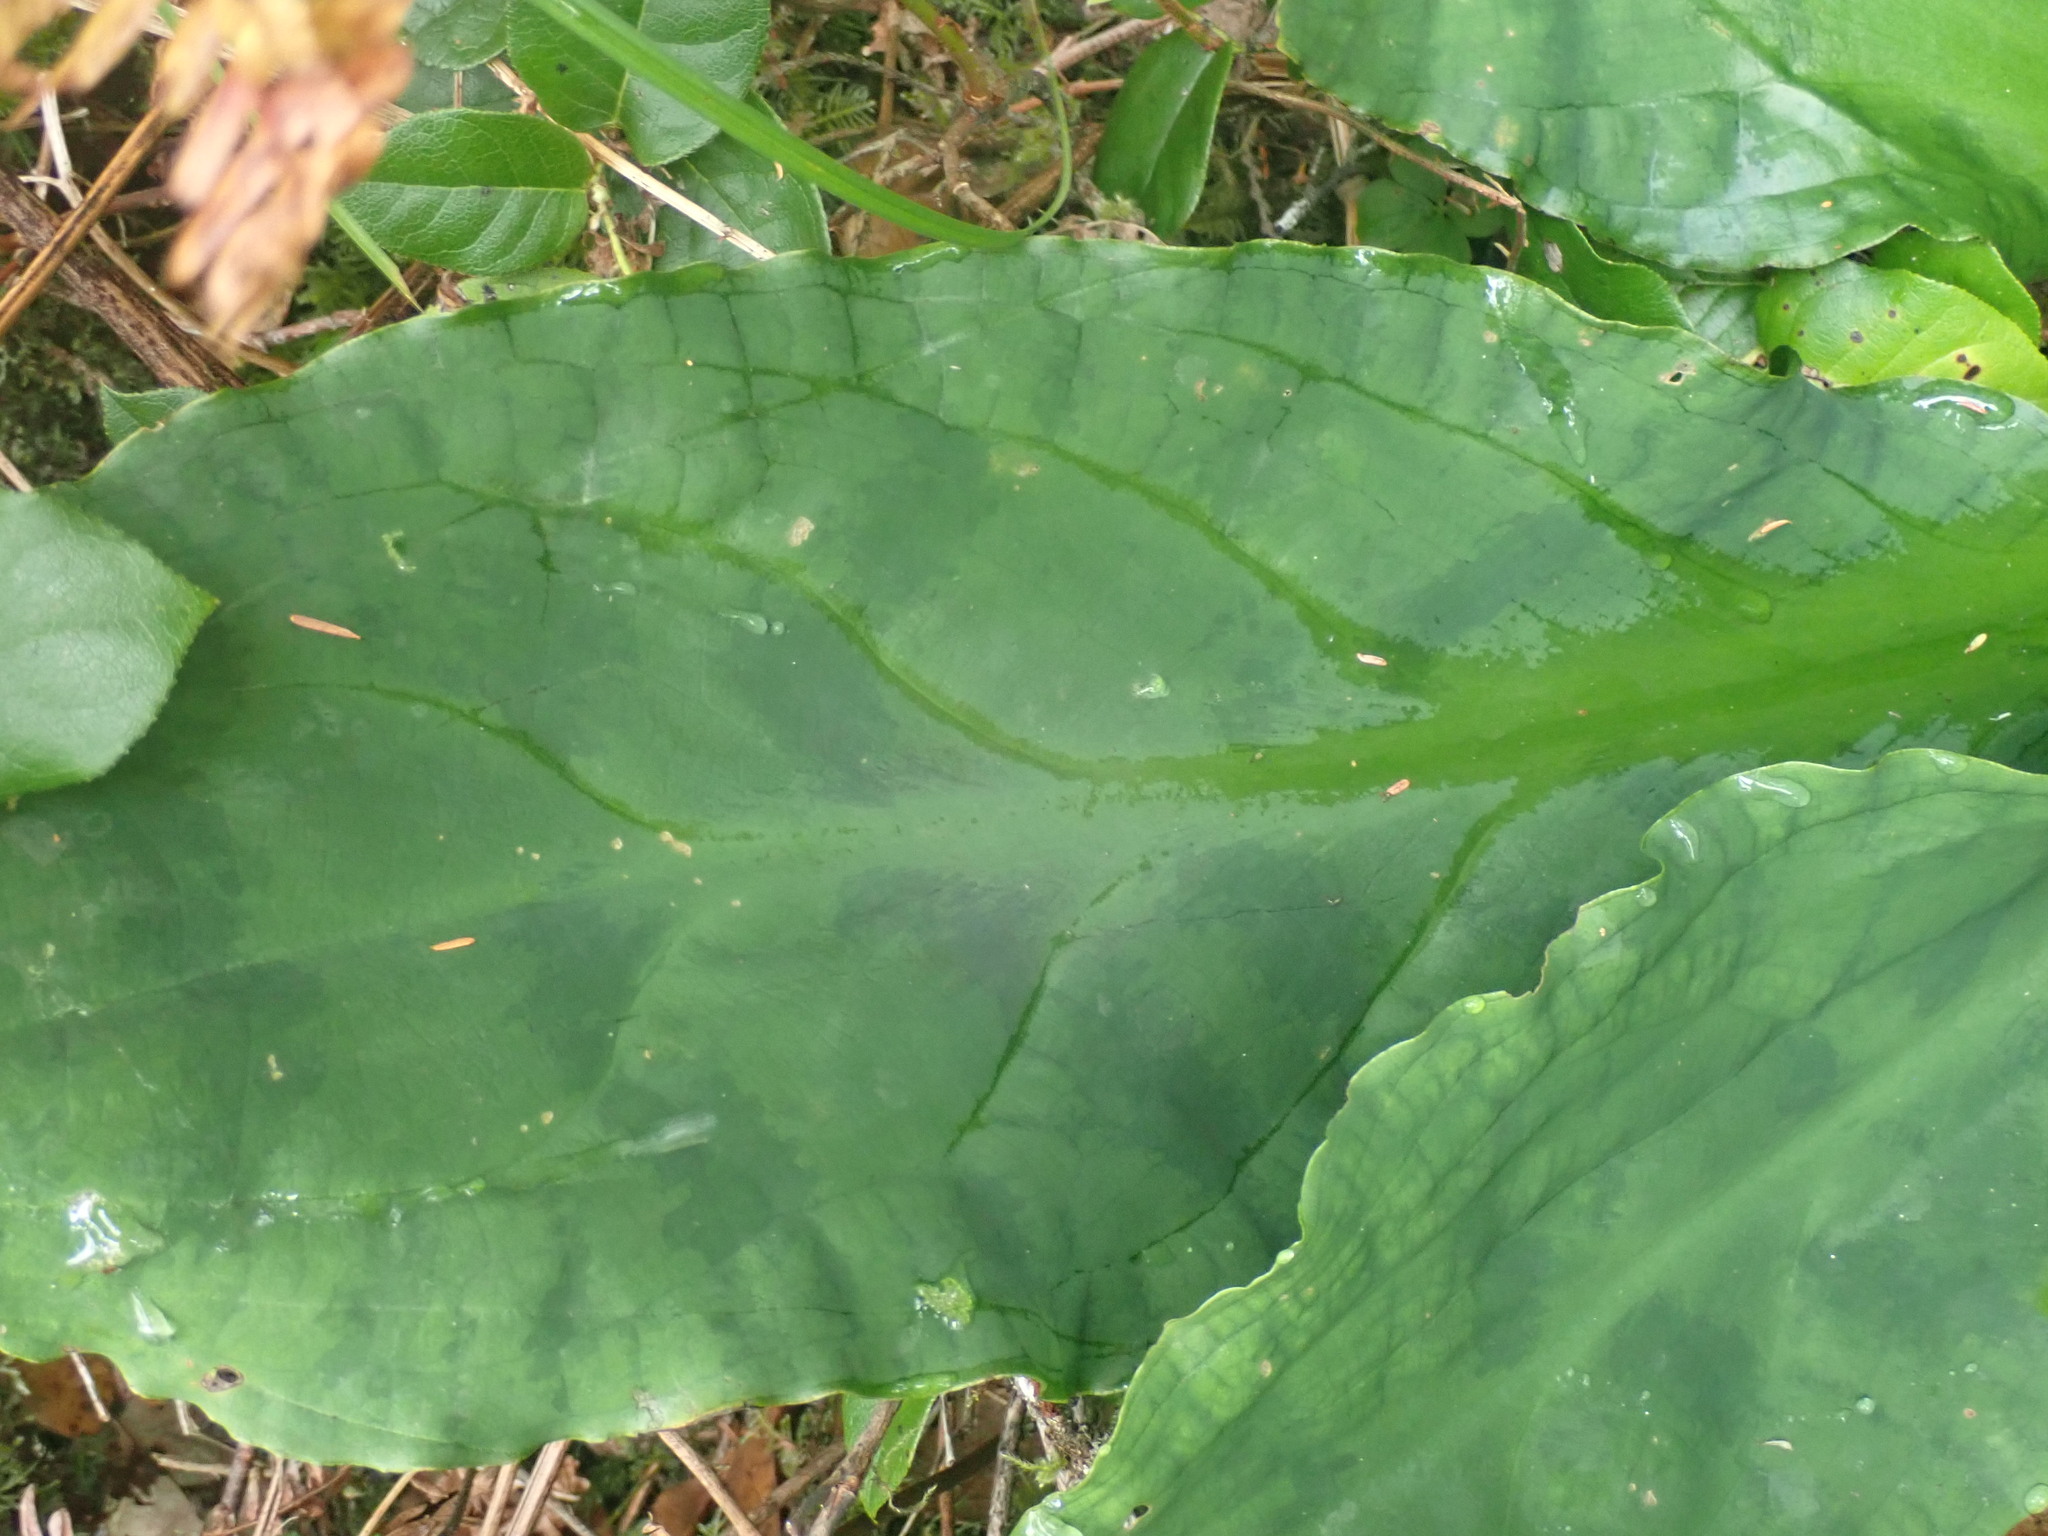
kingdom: Plantae
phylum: Tracheophyta
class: Liliopsida
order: Alismatales
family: Araceae
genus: Lysichiton
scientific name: Lysichiton americanus
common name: American skunk cabbage
